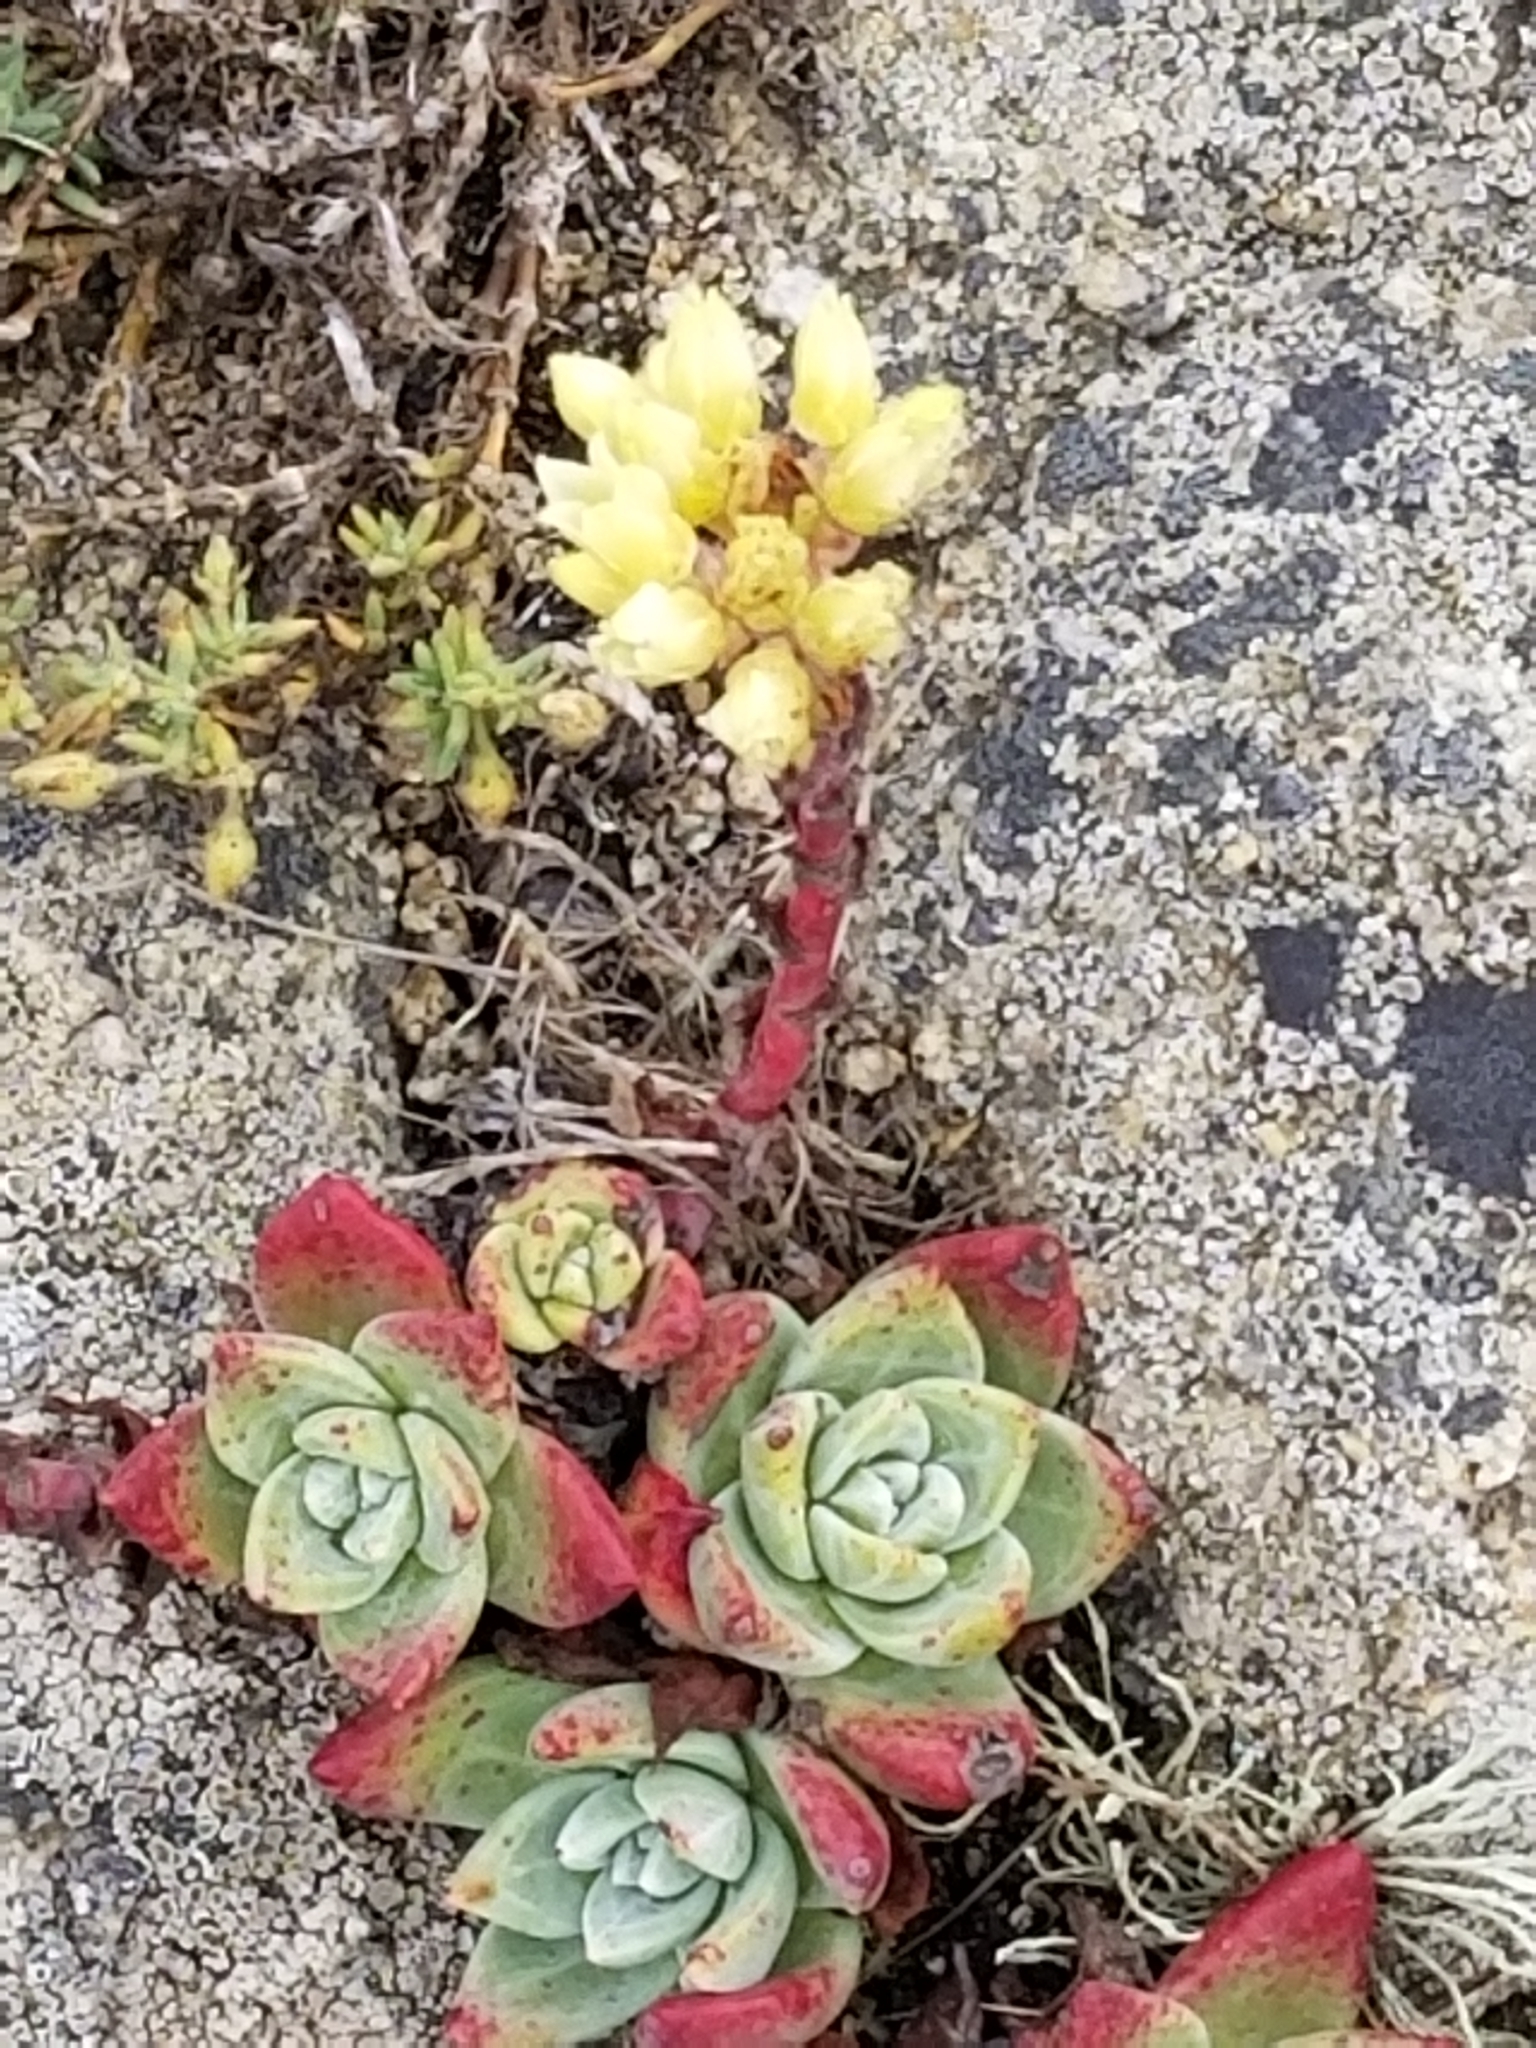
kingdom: Plantae
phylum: Tracheophyta
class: Magnoliopsida
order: Saxifragales
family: Crassulaceae
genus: Dudleya
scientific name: Dudleya farinosa
